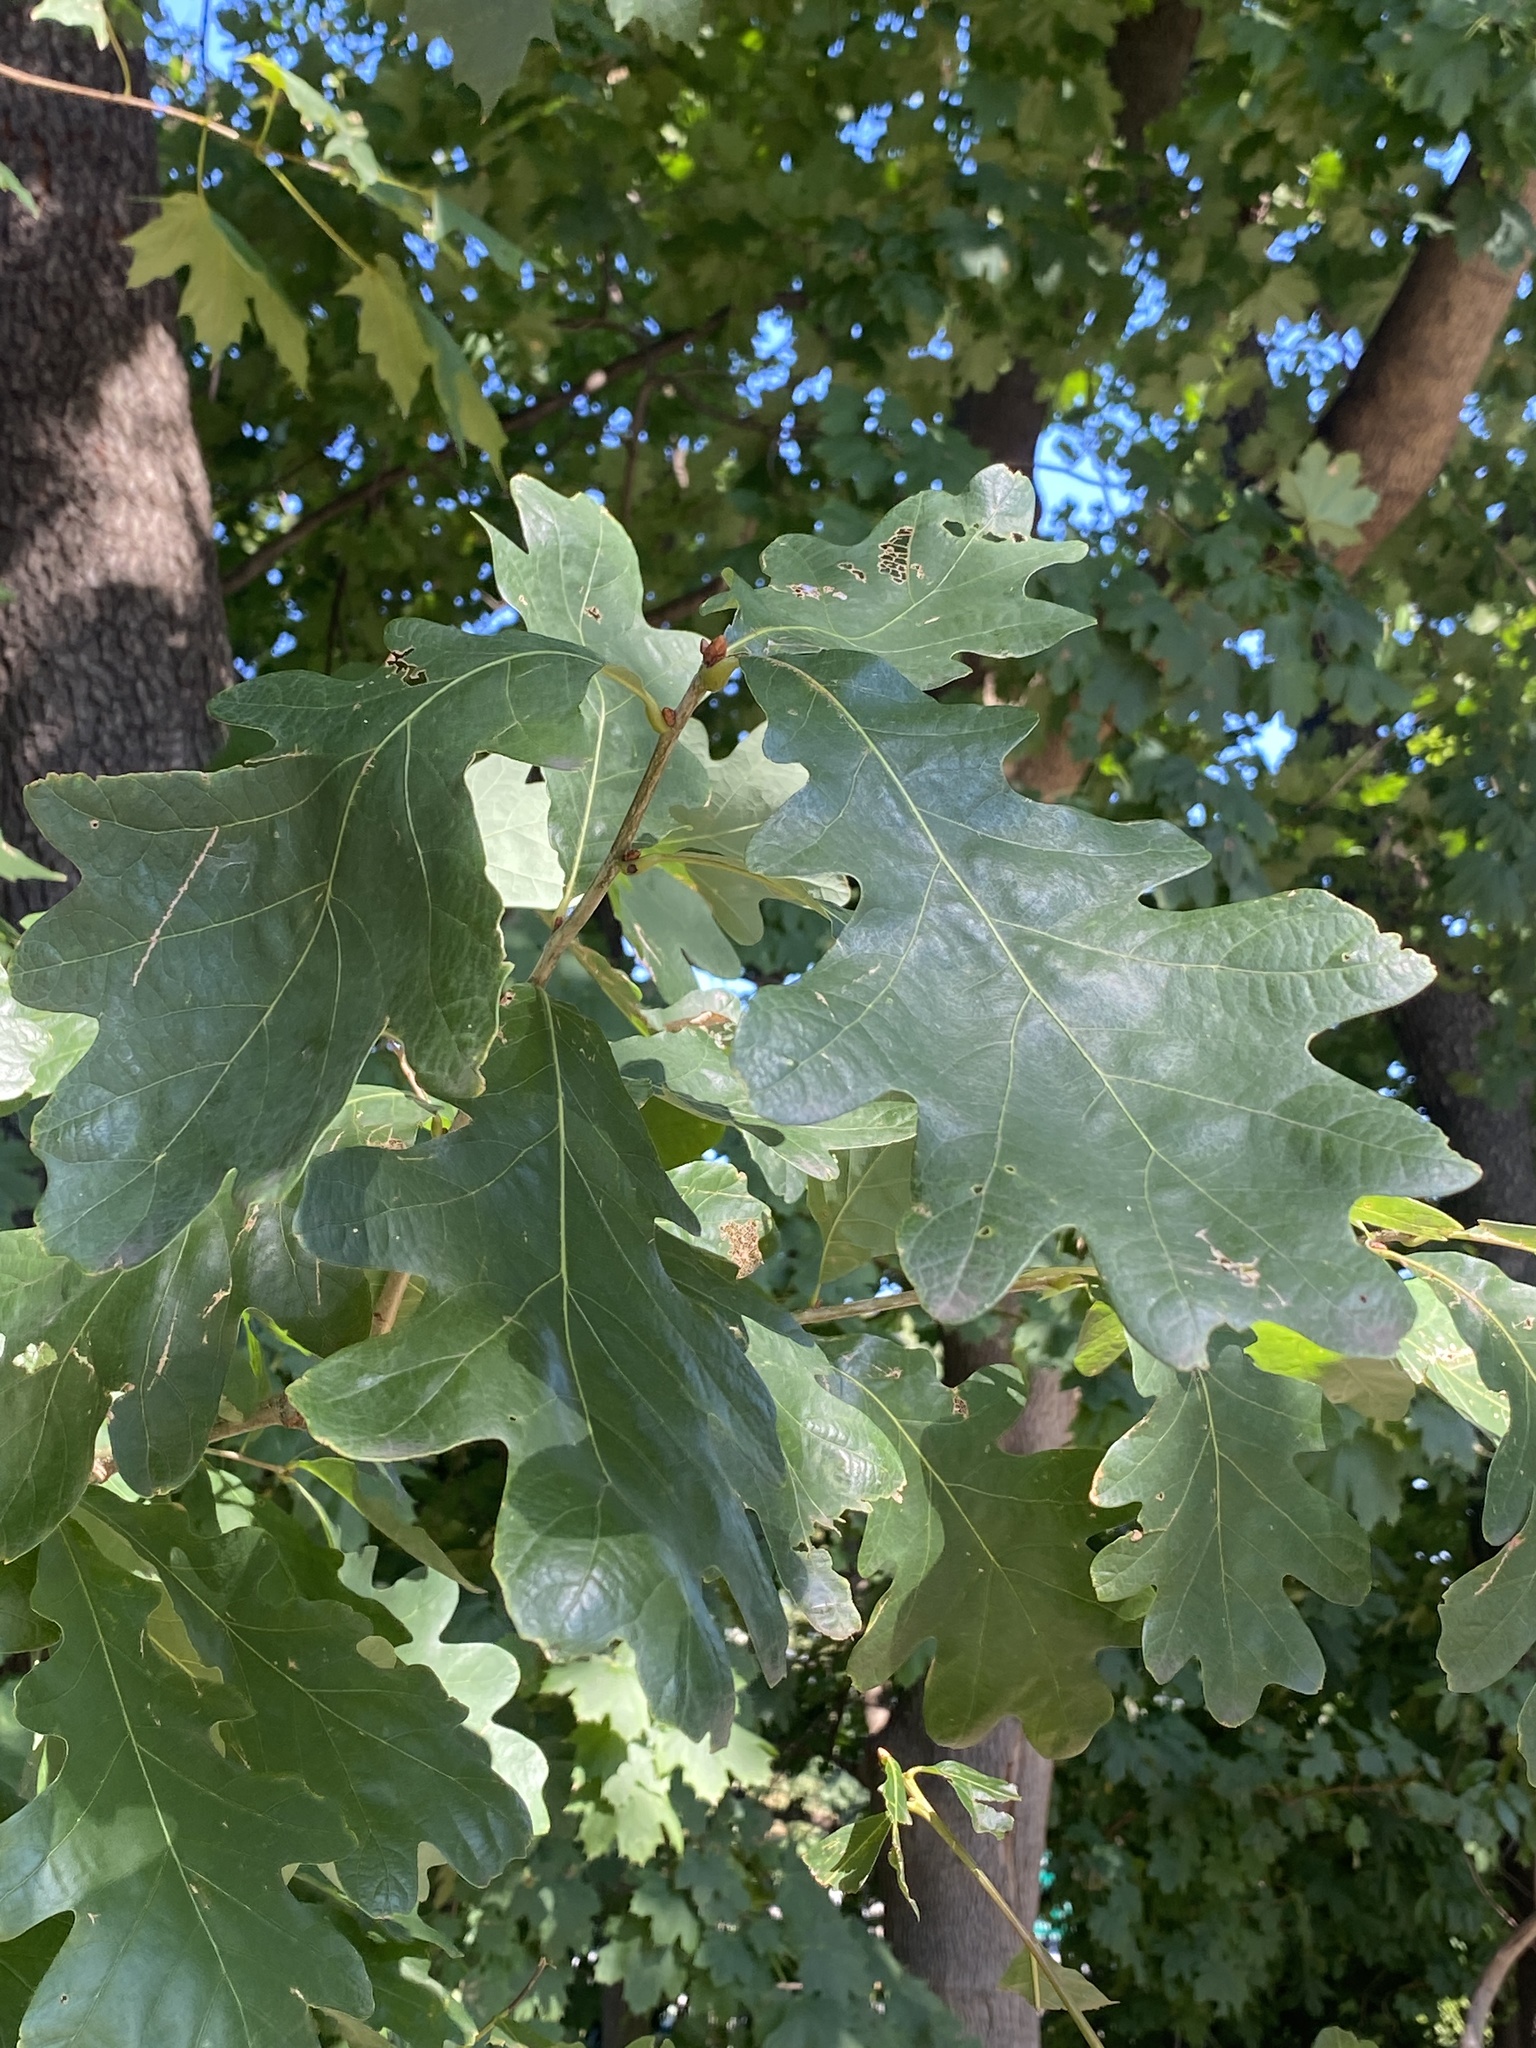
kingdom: Plantae
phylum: Tracheophyta
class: Magnoliopsida
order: Fagales
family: Fagaceae
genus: Quercus
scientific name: Quercus alba
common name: White oak
